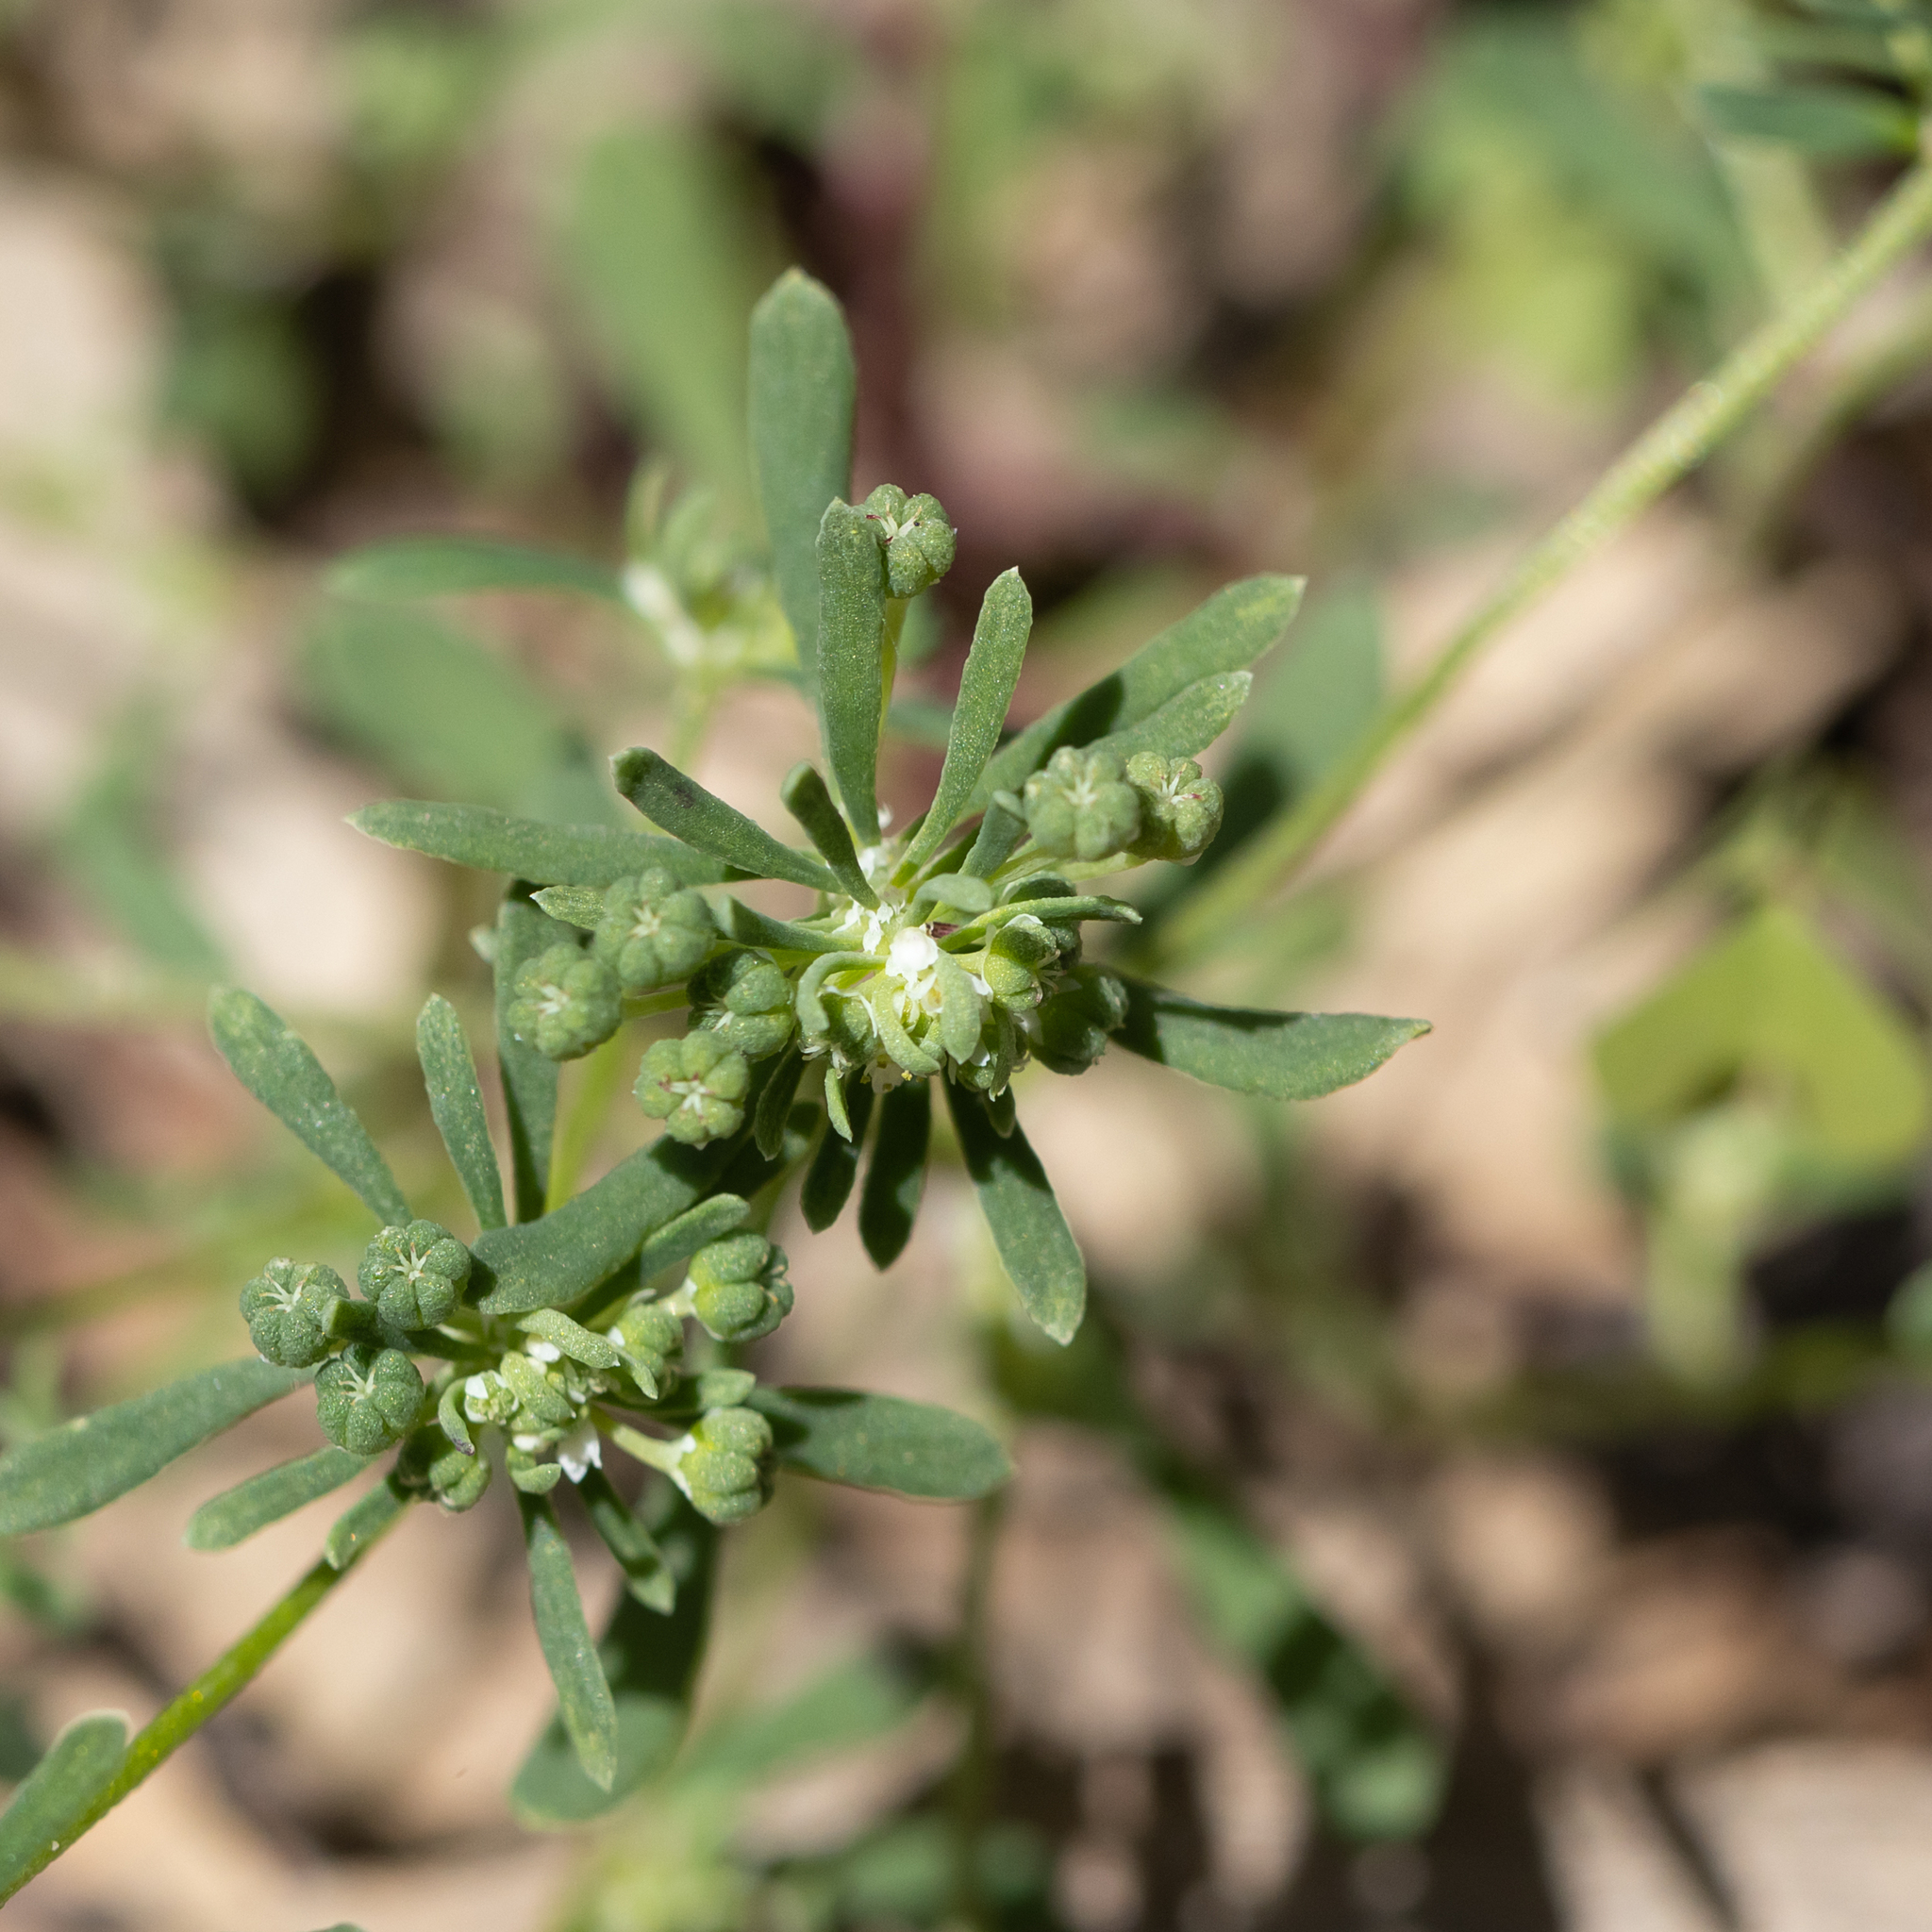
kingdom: Plantae
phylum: Tracheophyta
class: Magnoliopsida
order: Malpighiales
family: Phyllanthaceae
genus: Poranthera
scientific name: Poranthera microphylla
